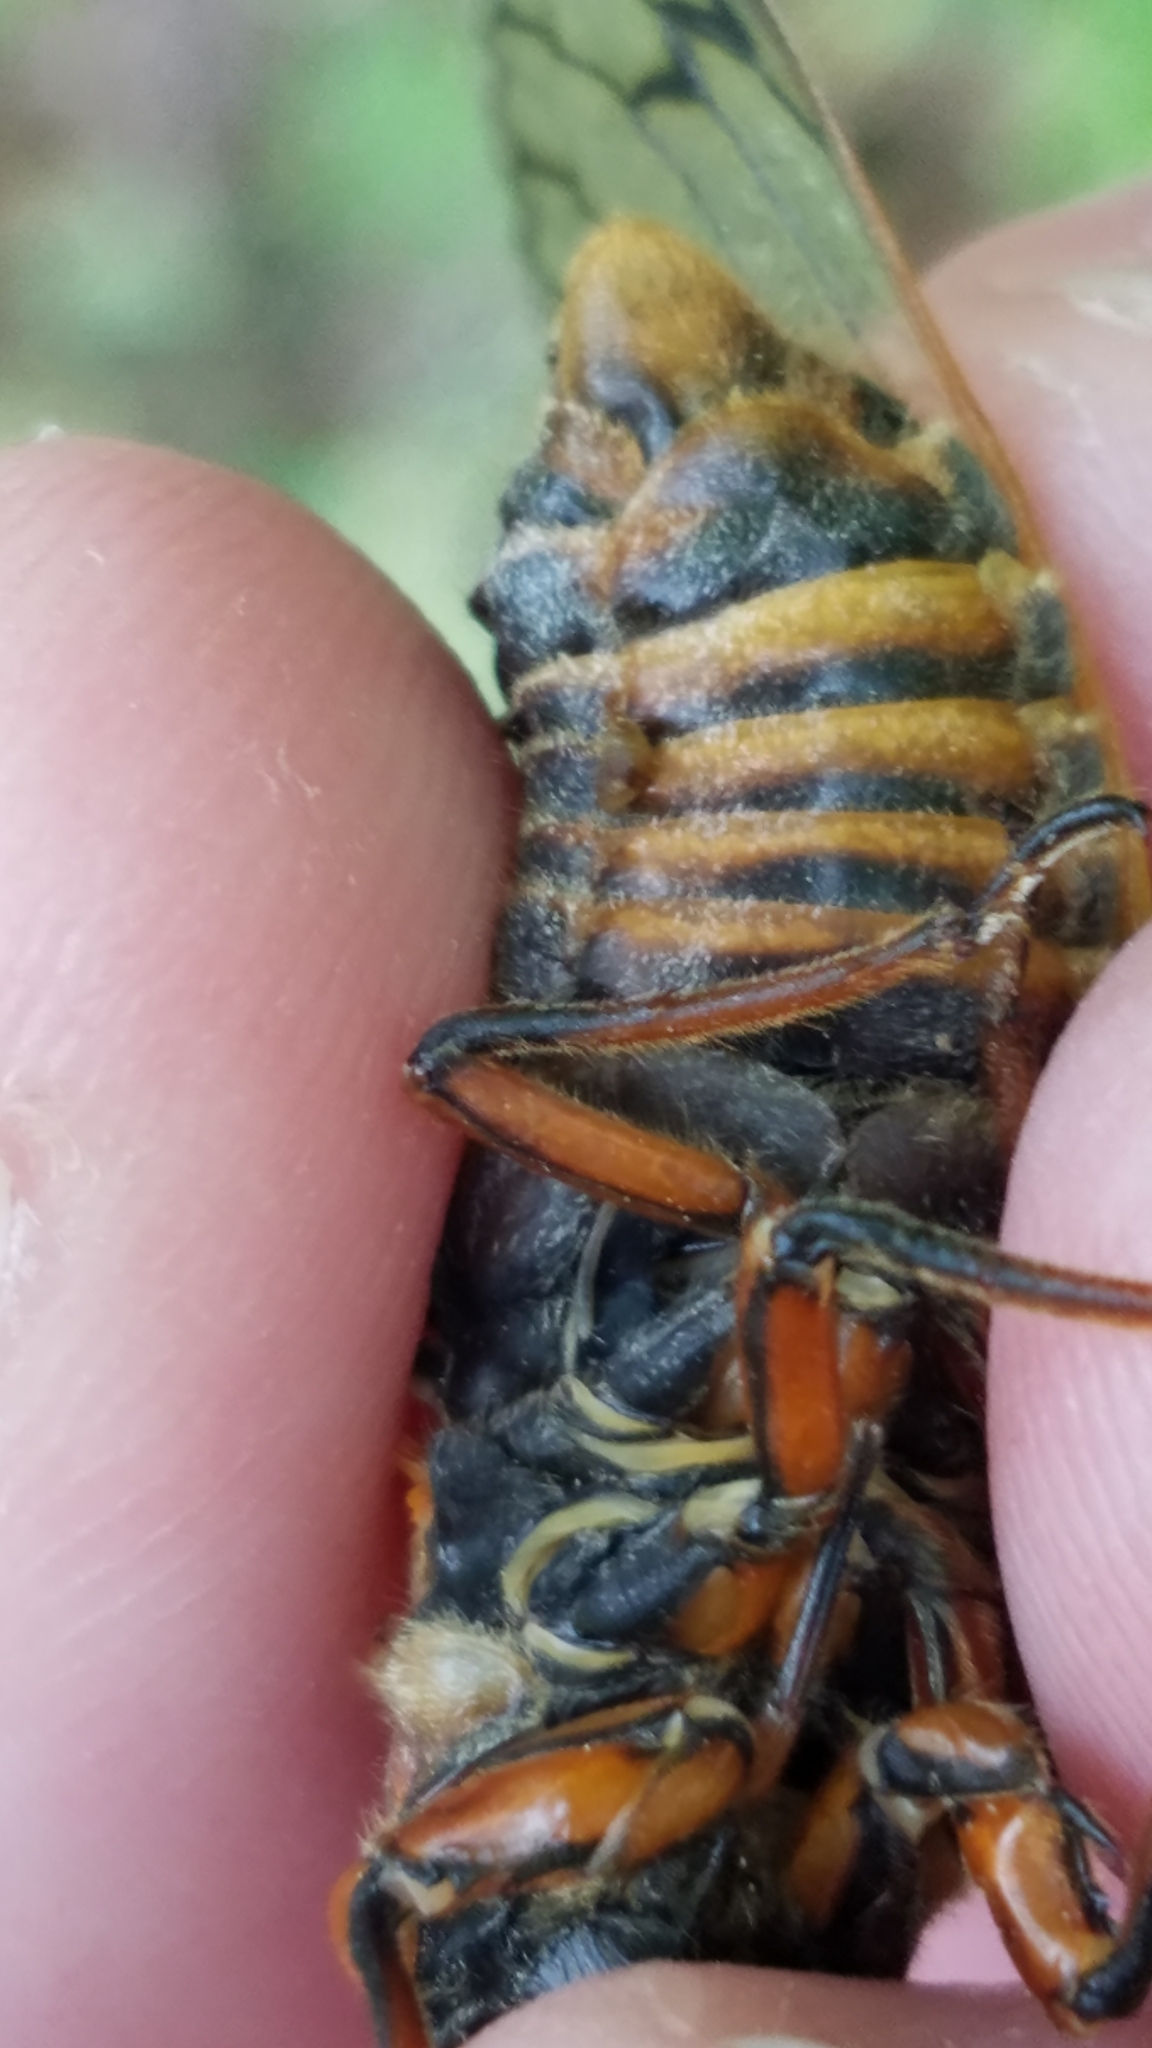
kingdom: Animalia
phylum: Arthropoda
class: Insecta
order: Hemiptera
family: Cicadidae
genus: Magicicada
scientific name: Magicicada septendecim
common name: Periodical cicada
